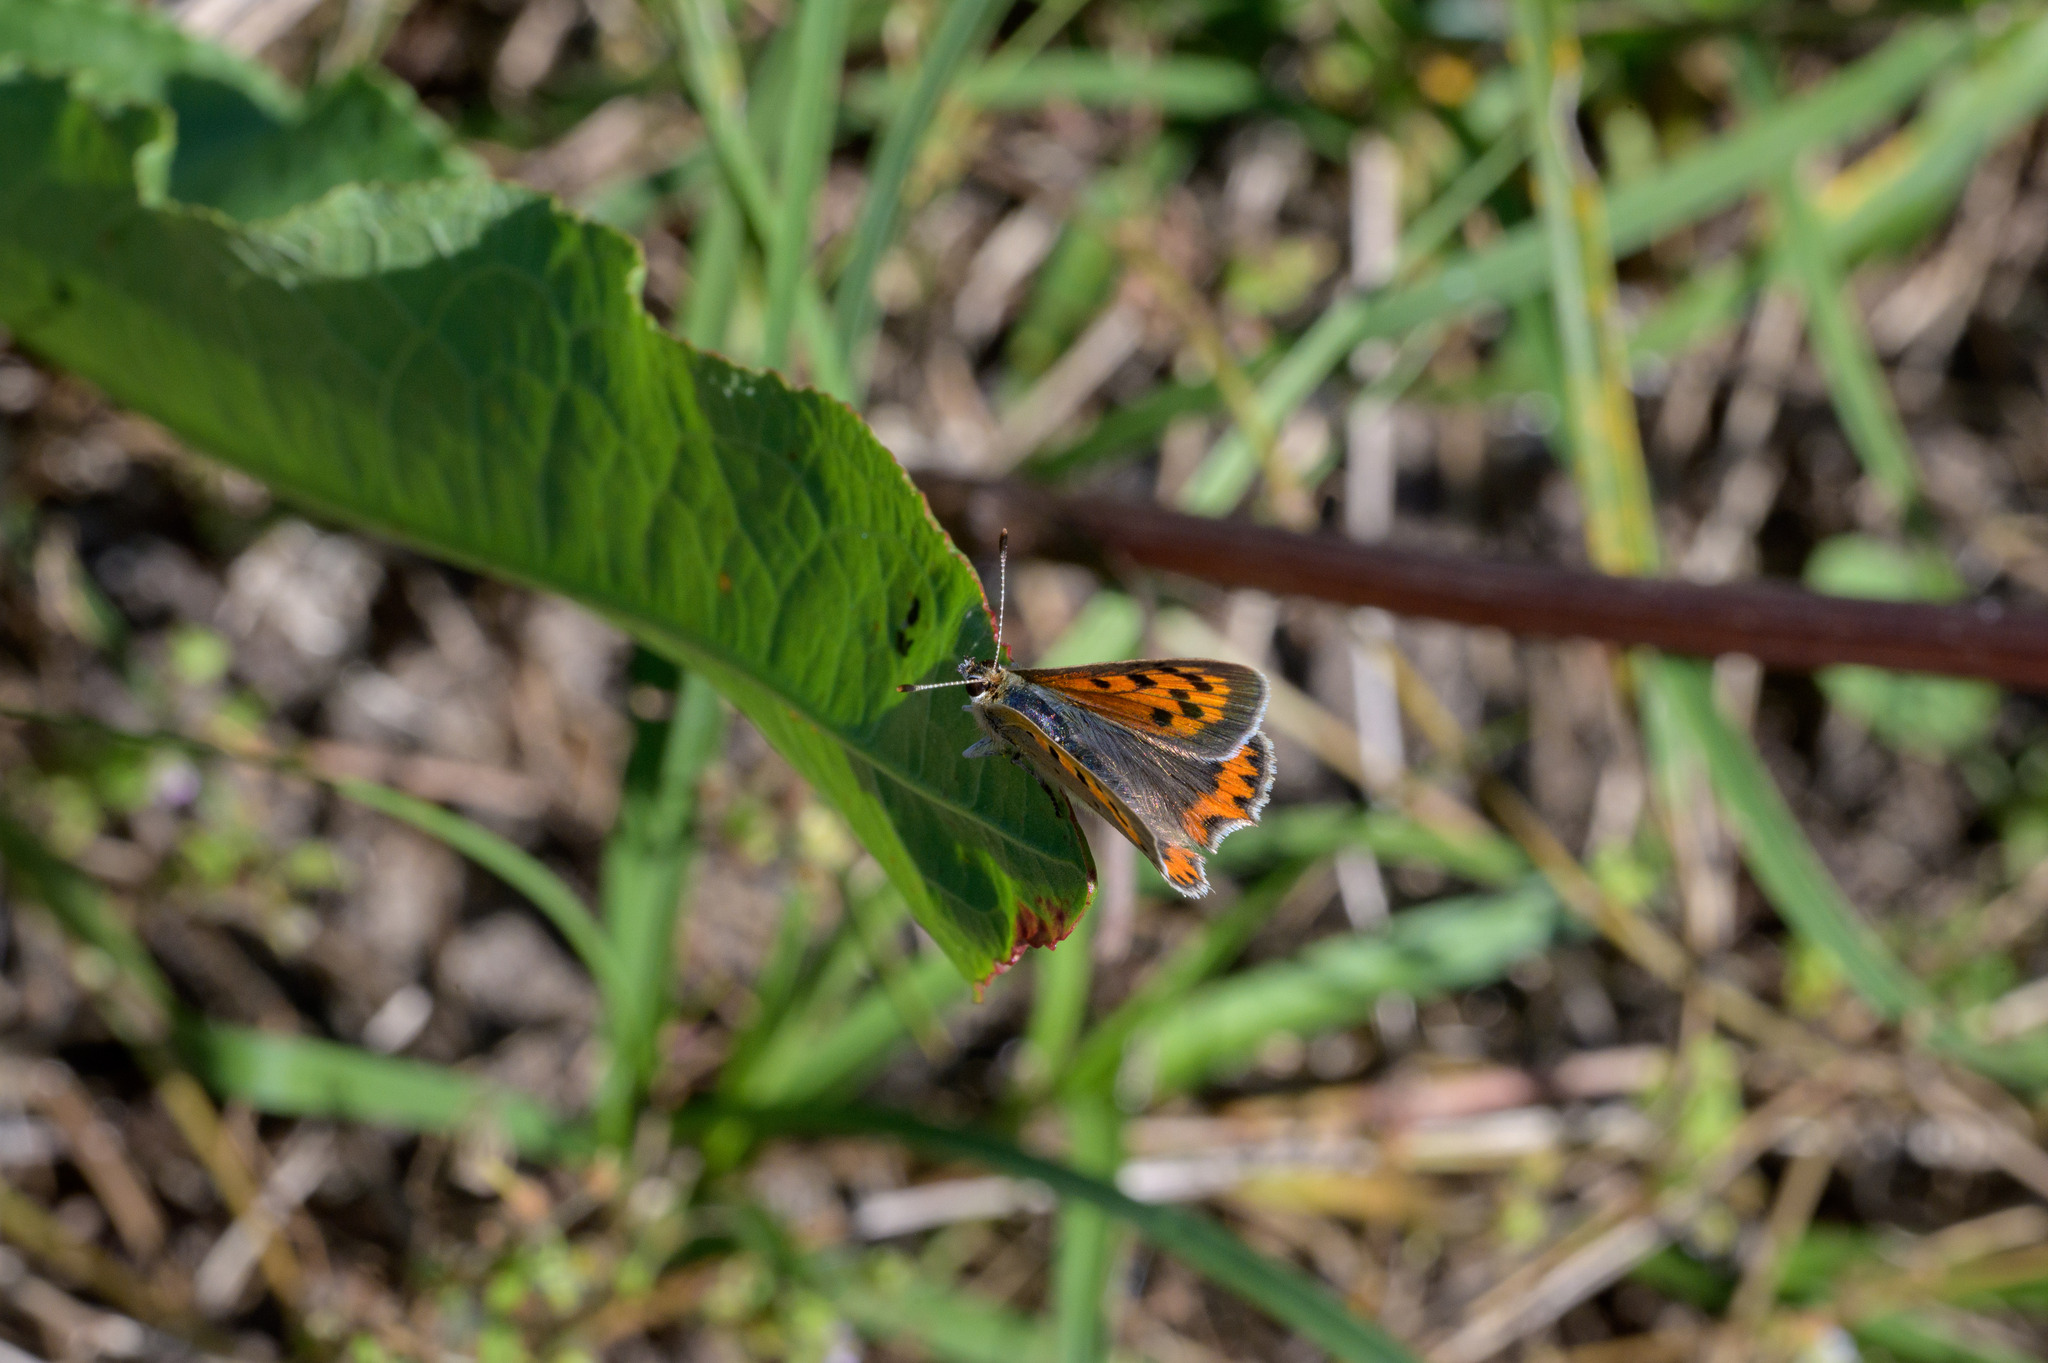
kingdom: Animalia
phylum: Arthropoda
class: Insecta
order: Lepidoptera
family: Lycaenidae
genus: Lycaena
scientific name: Lycaena phlaeas
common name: Small copper
